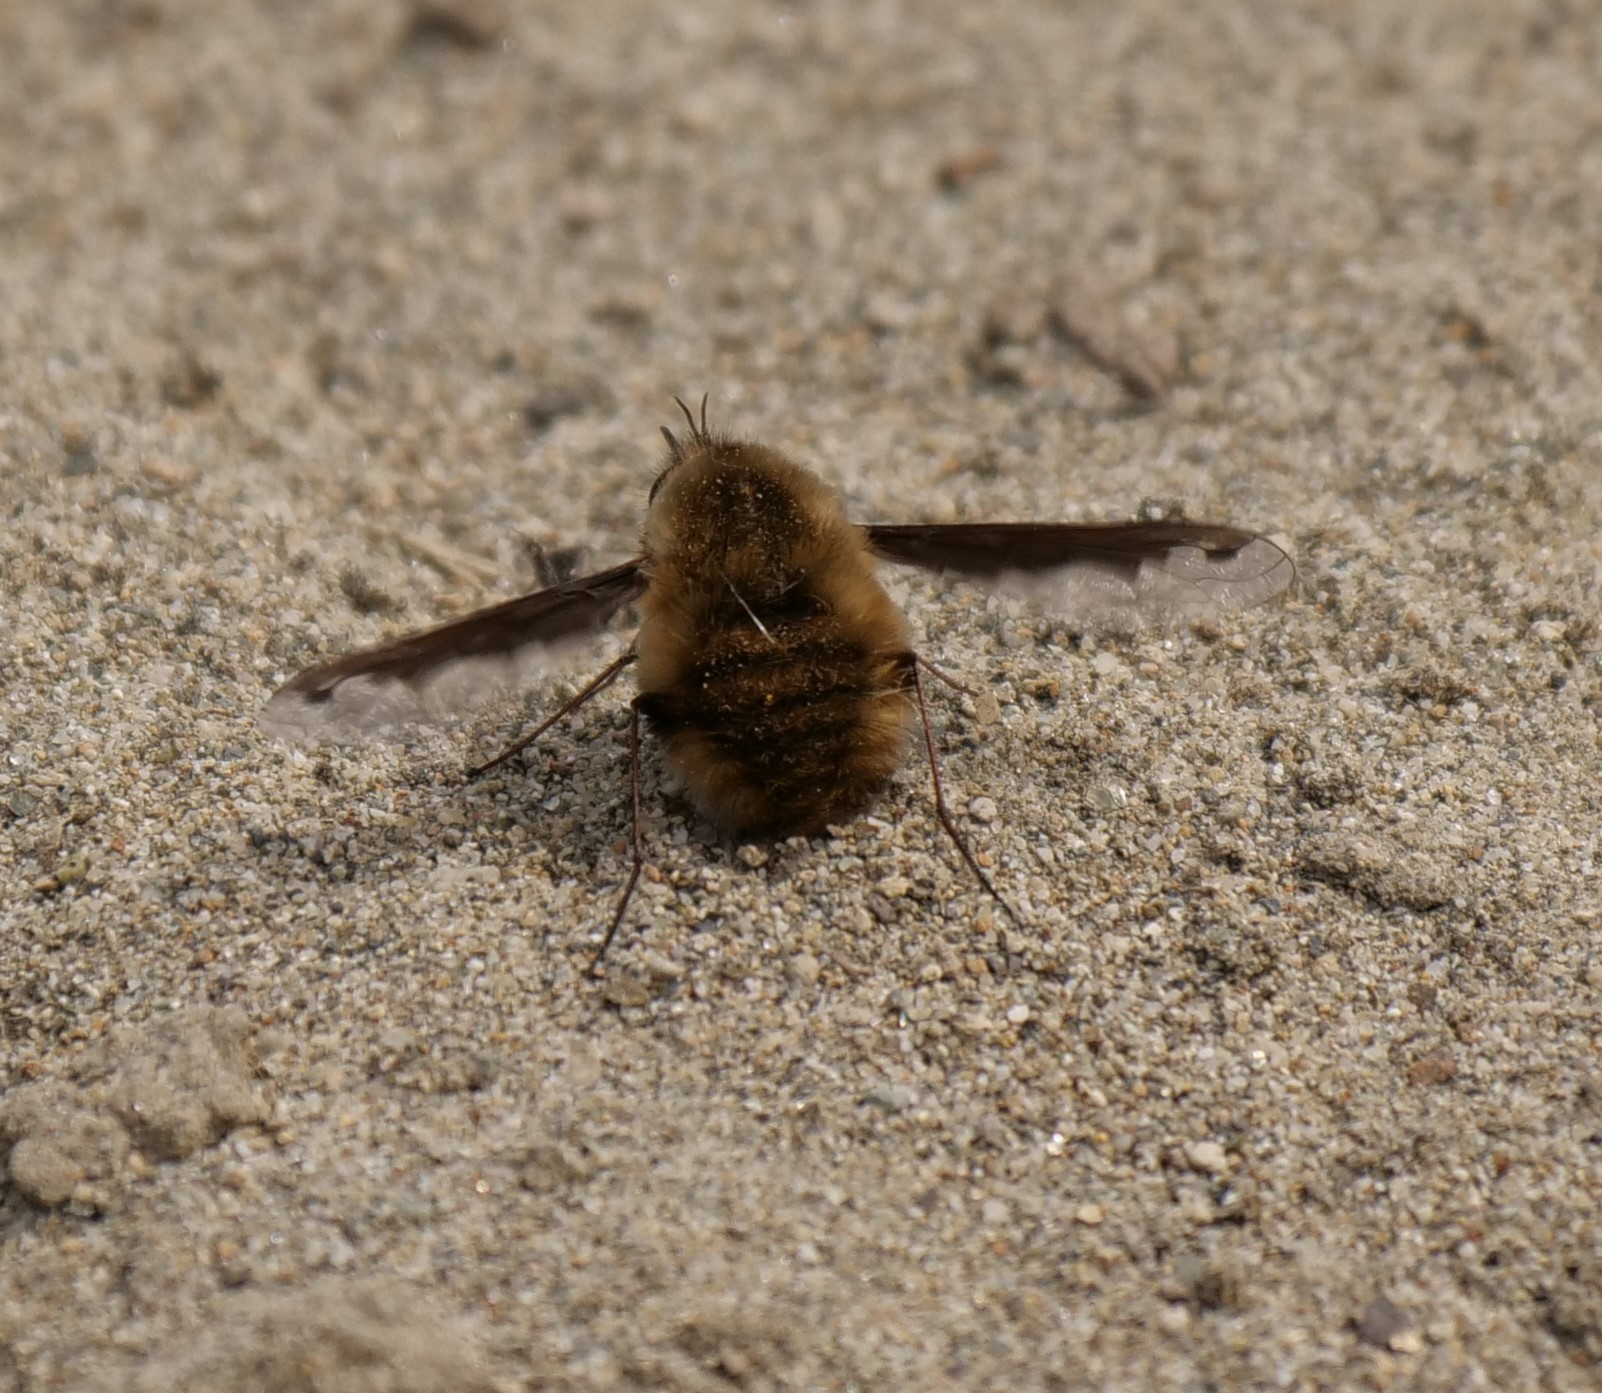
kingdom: Animalia
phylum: Arthropoda
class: Insecta
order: Diptera
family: Bombyliidae
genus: Bombylius
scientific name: Bombylius major
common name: Bee fly
